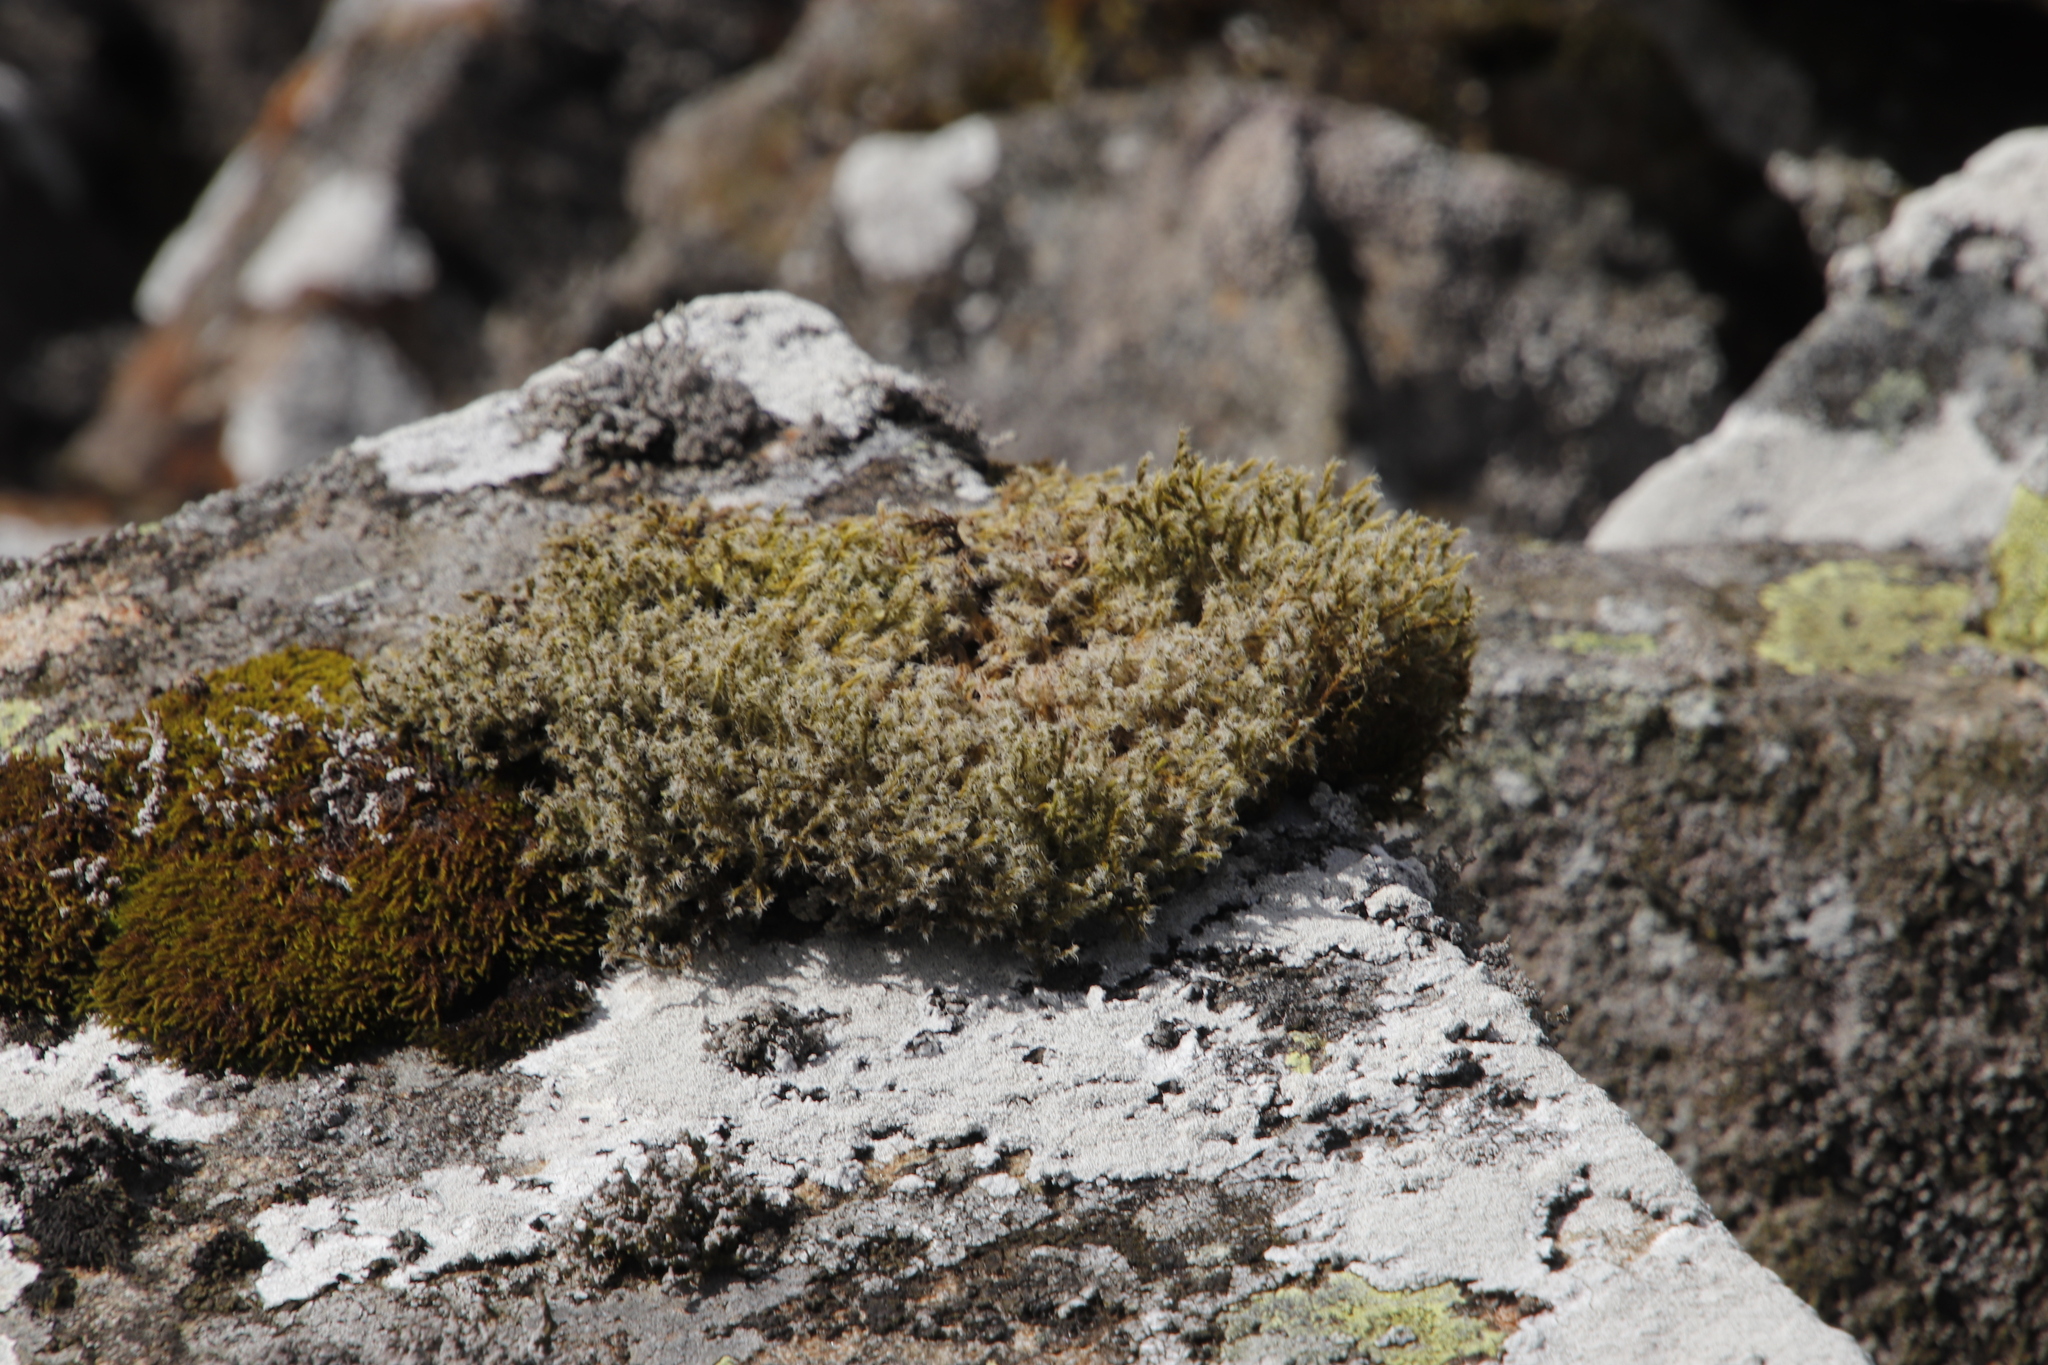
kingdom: Plantae
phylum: Bryophyta
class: Bryopsida
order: Grimmiales
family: Grimmiaceae
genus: Racomitrium
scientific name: Racomitrium lanuginosum
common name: Hoary rock moss
